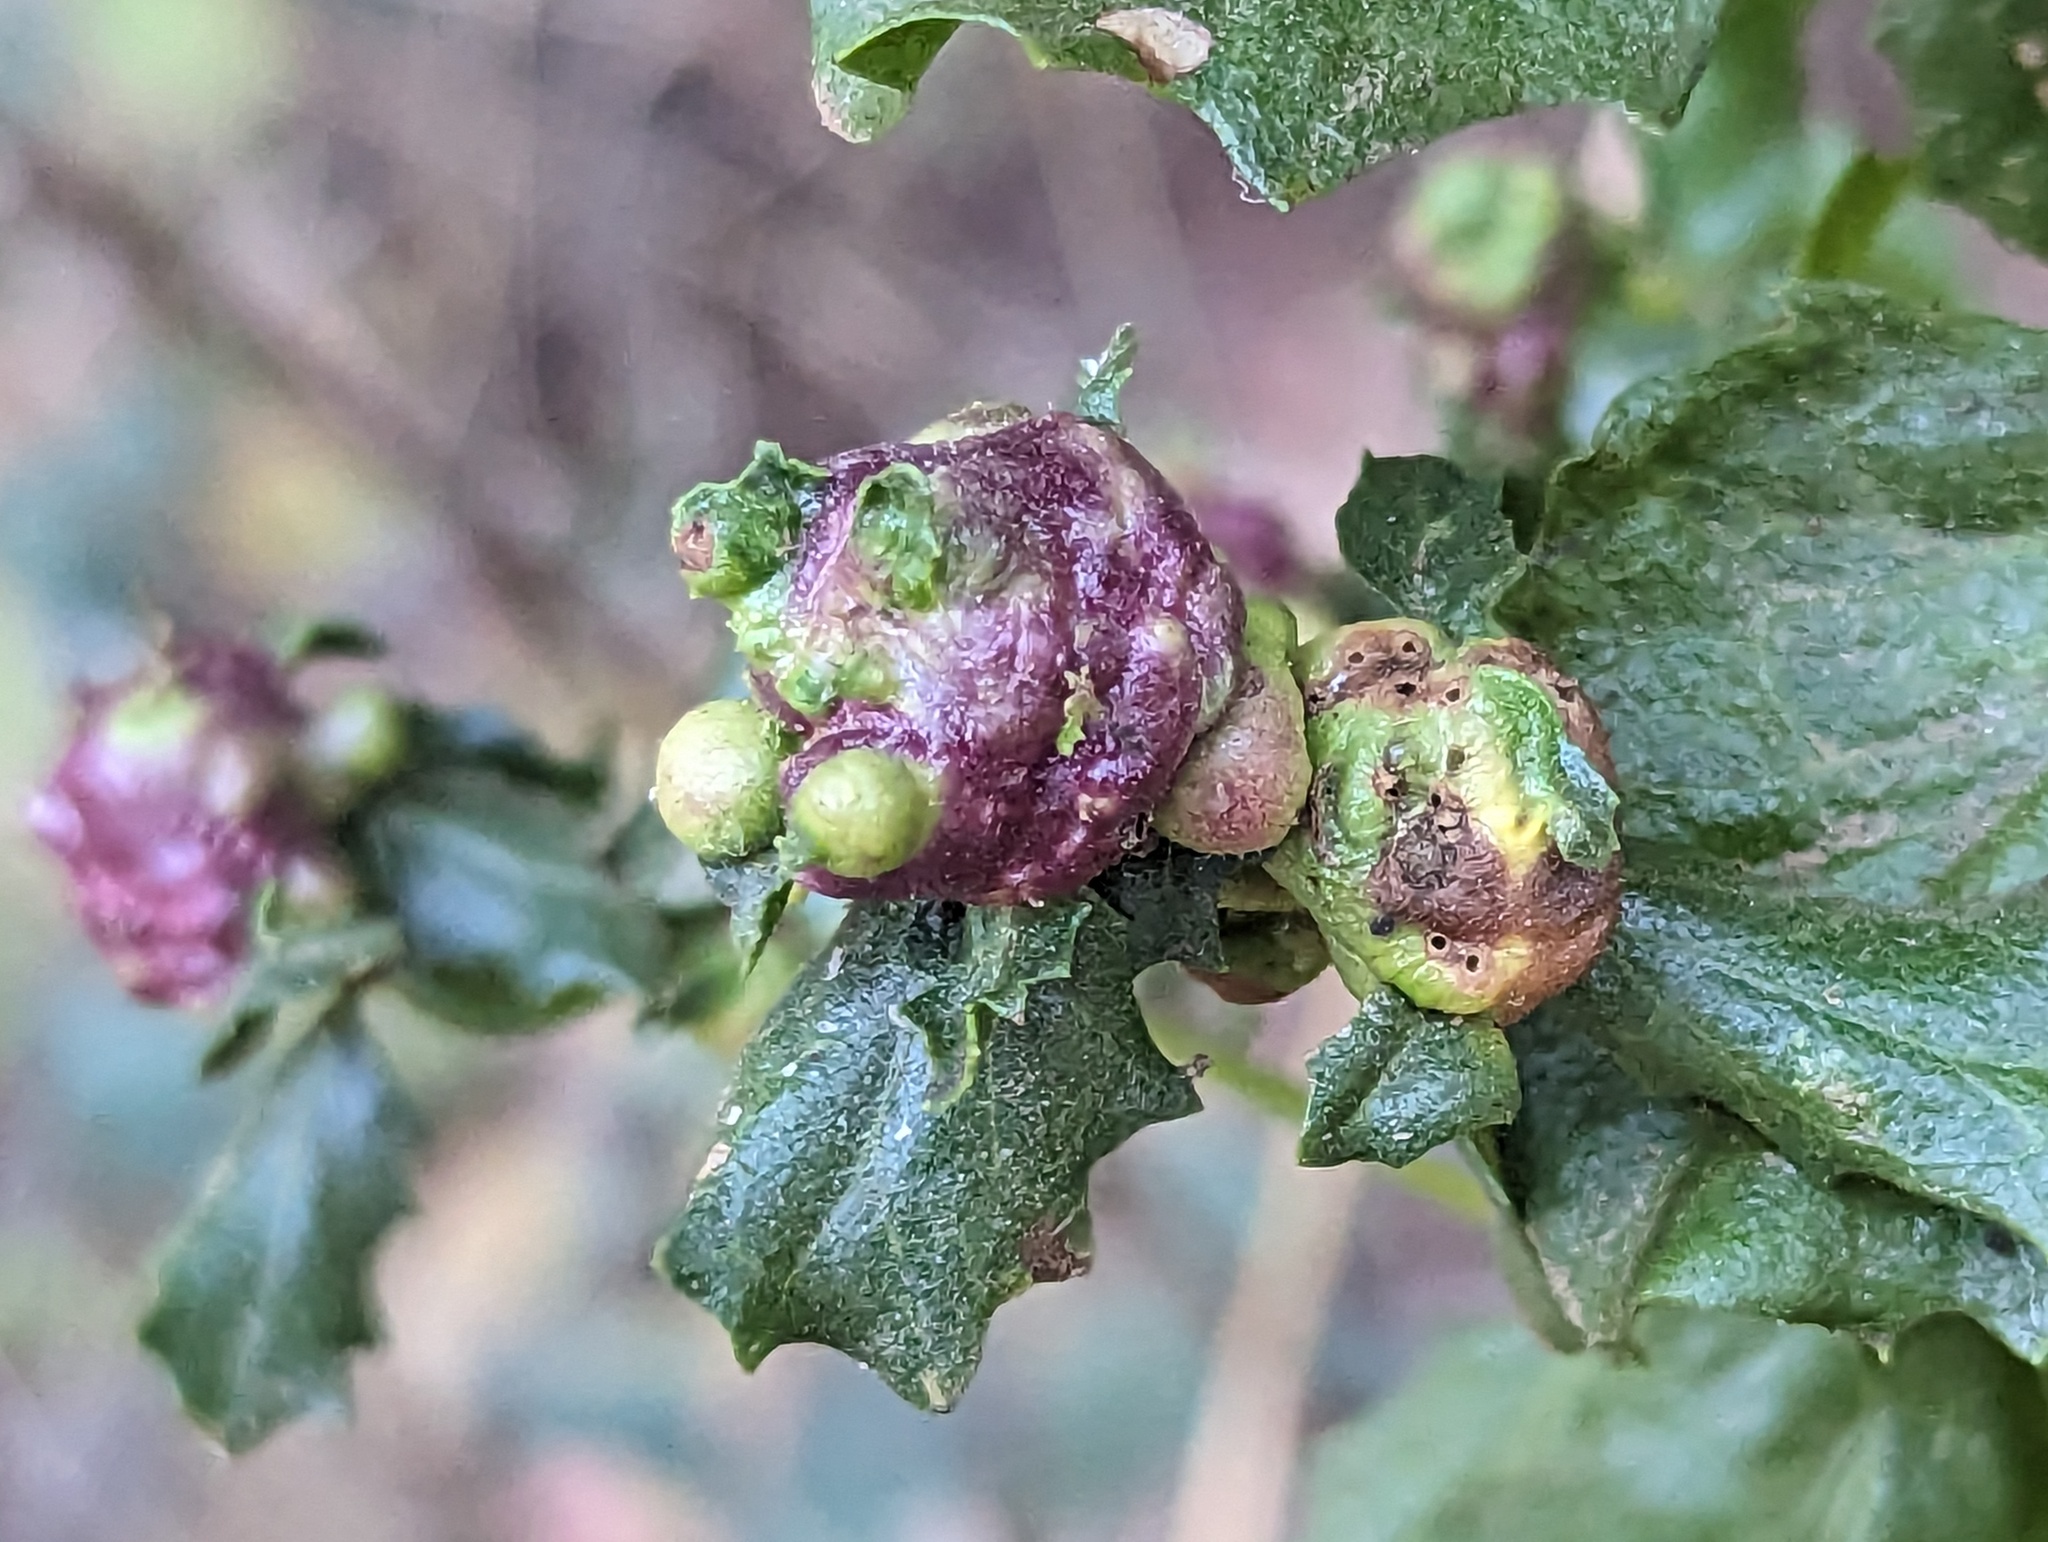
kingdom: Animalia
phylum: Arthropoda
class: Insecta
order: Diptera
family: Cecidomyiidae
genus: Rhopalomyia
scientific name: Rhopalomyia californica
